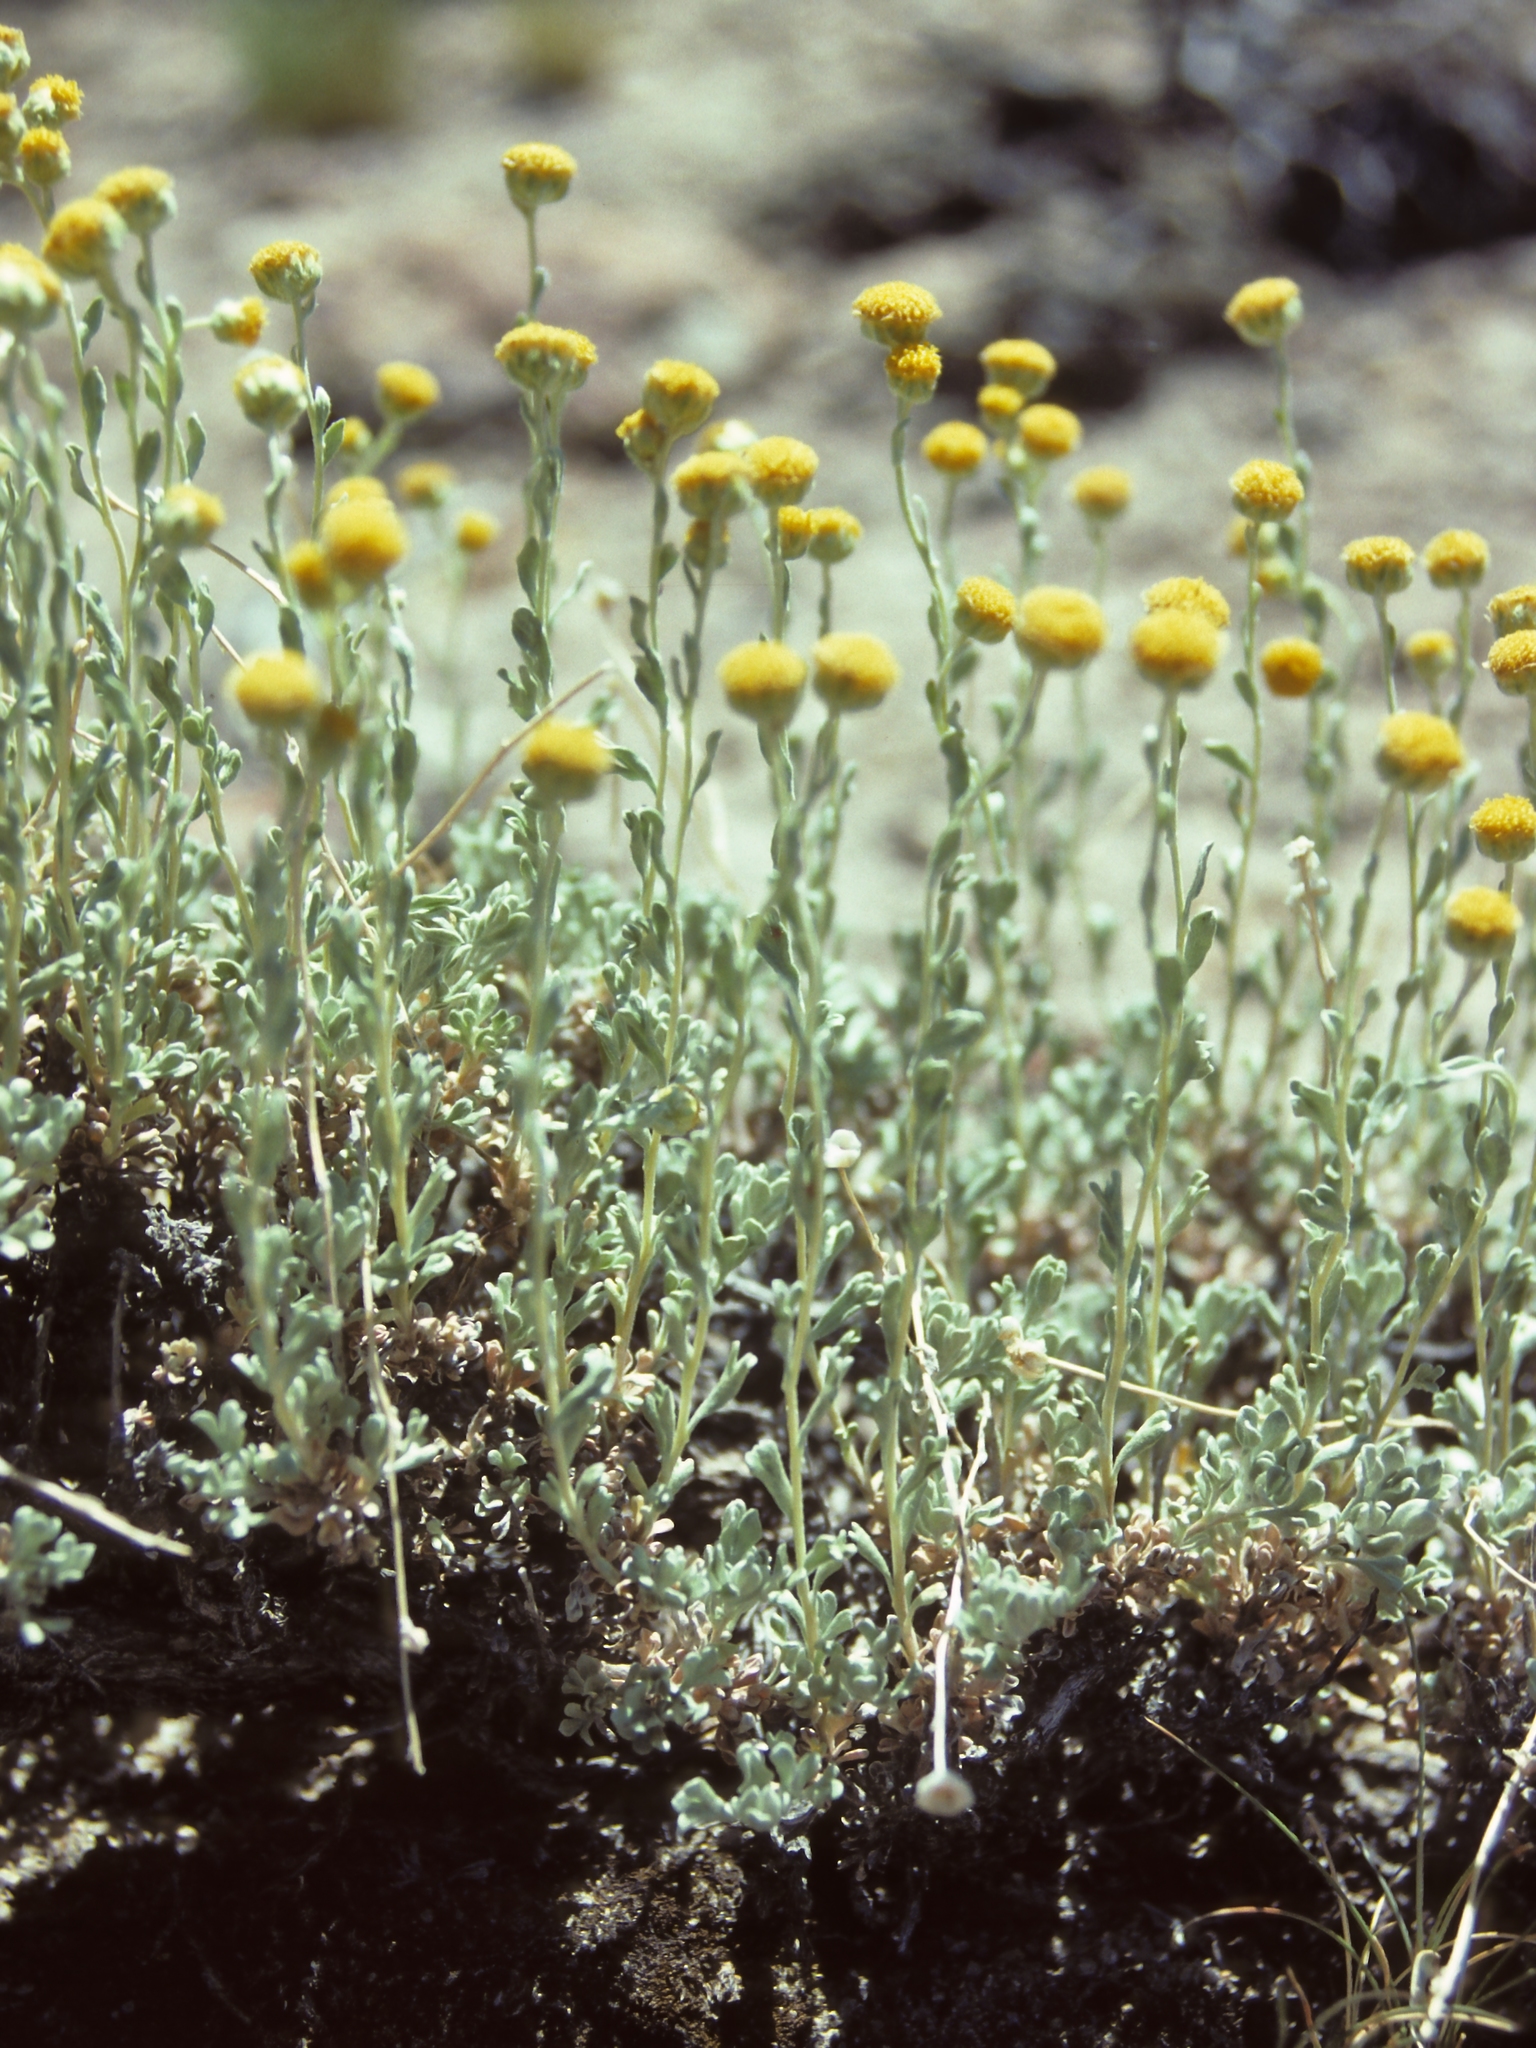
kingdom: Plantae
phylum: Tracheophyta
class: Magnoliopsida
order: Asterales
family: Asteraceae
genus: Artemisia
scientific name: Artemisia nuttallii
